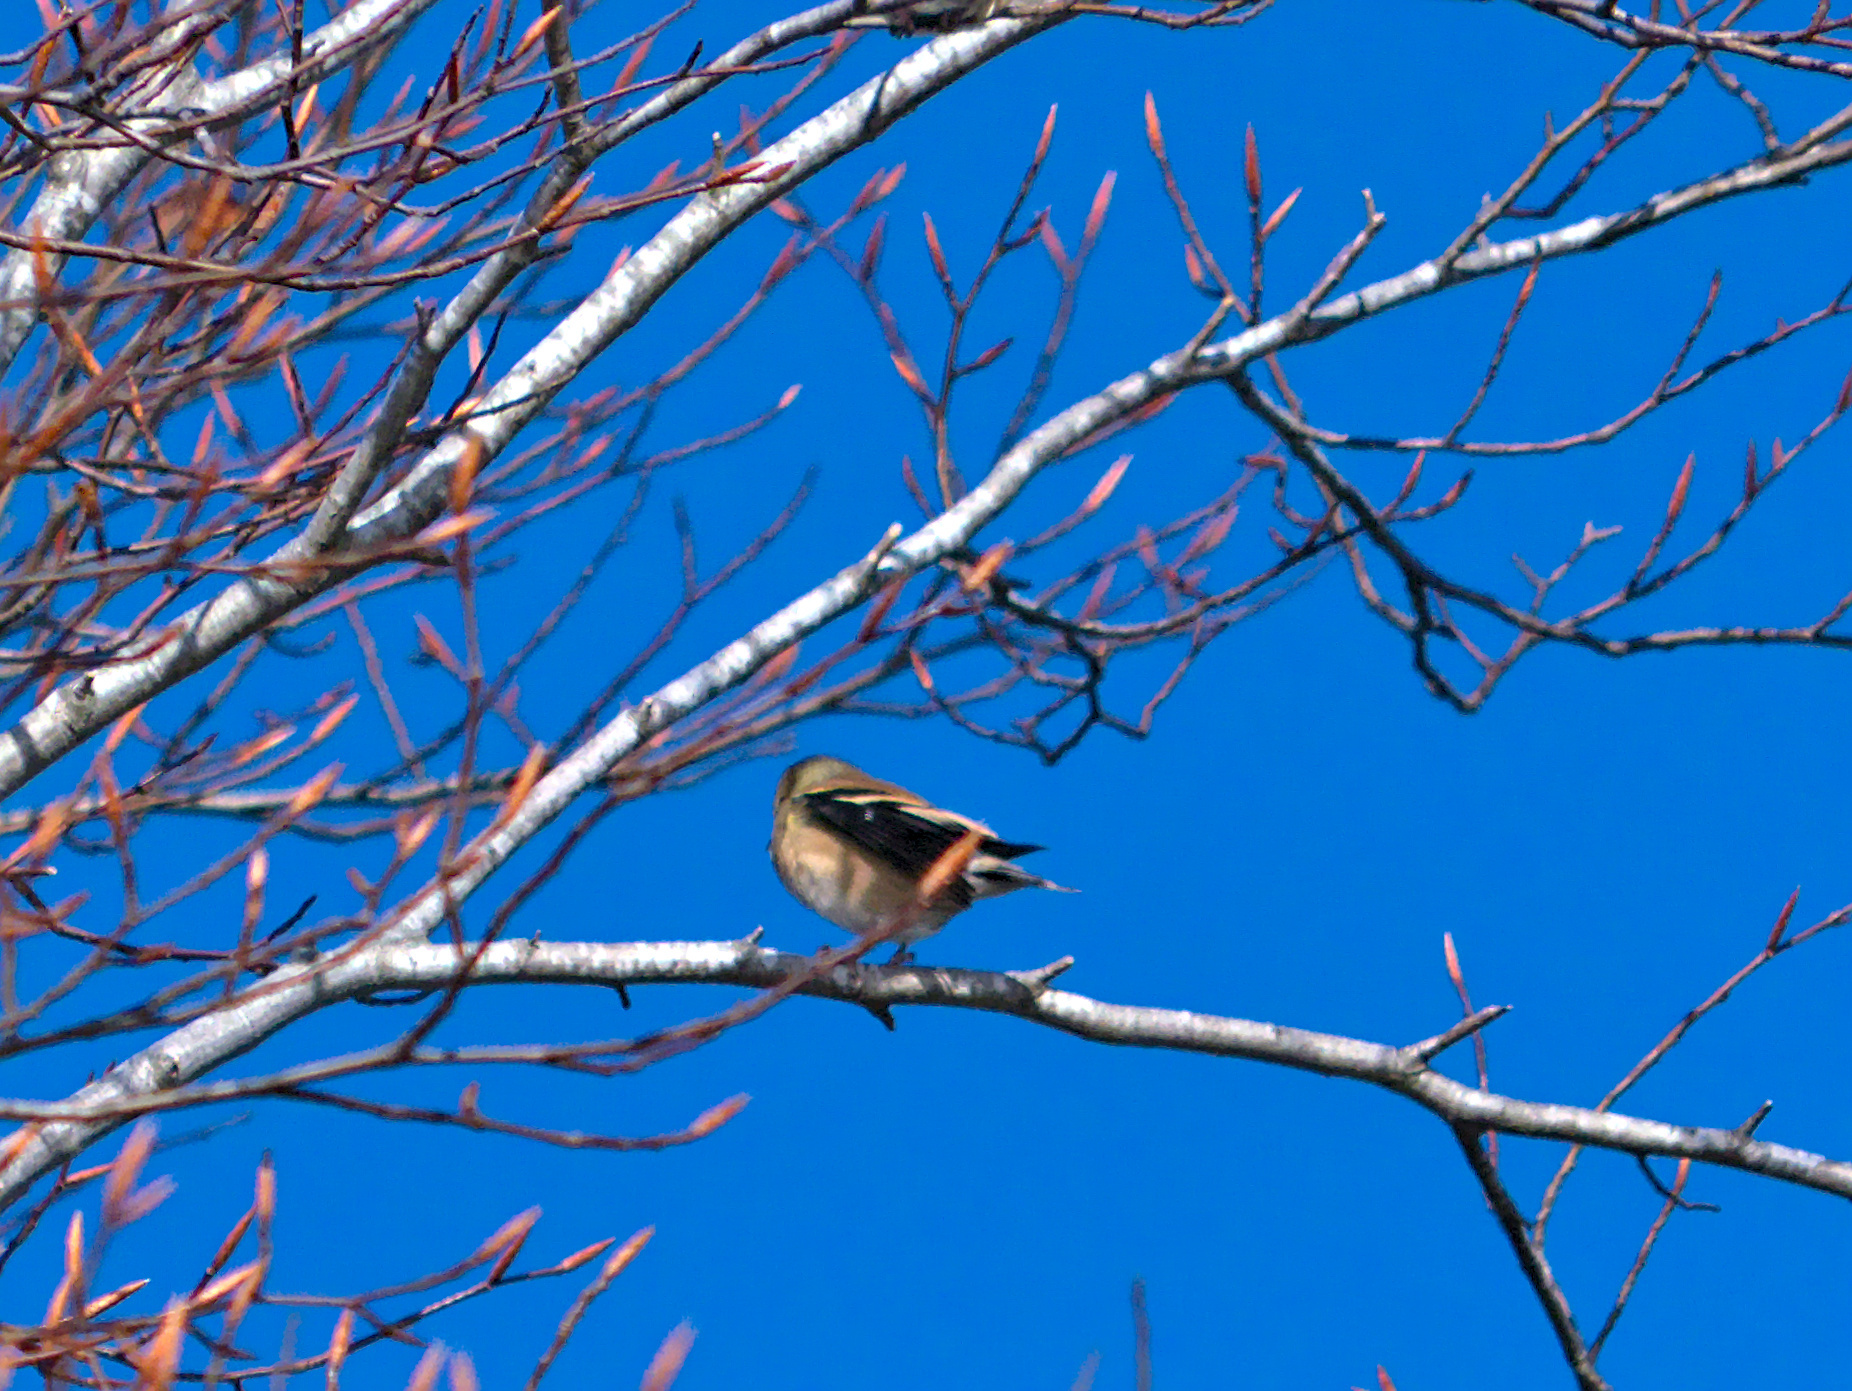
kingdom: Animalia
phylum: Chordata
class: Aves
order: Passeriformes
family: Fringillidae
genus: Spinus
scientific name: Spinus tristis
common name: American goldfinch
